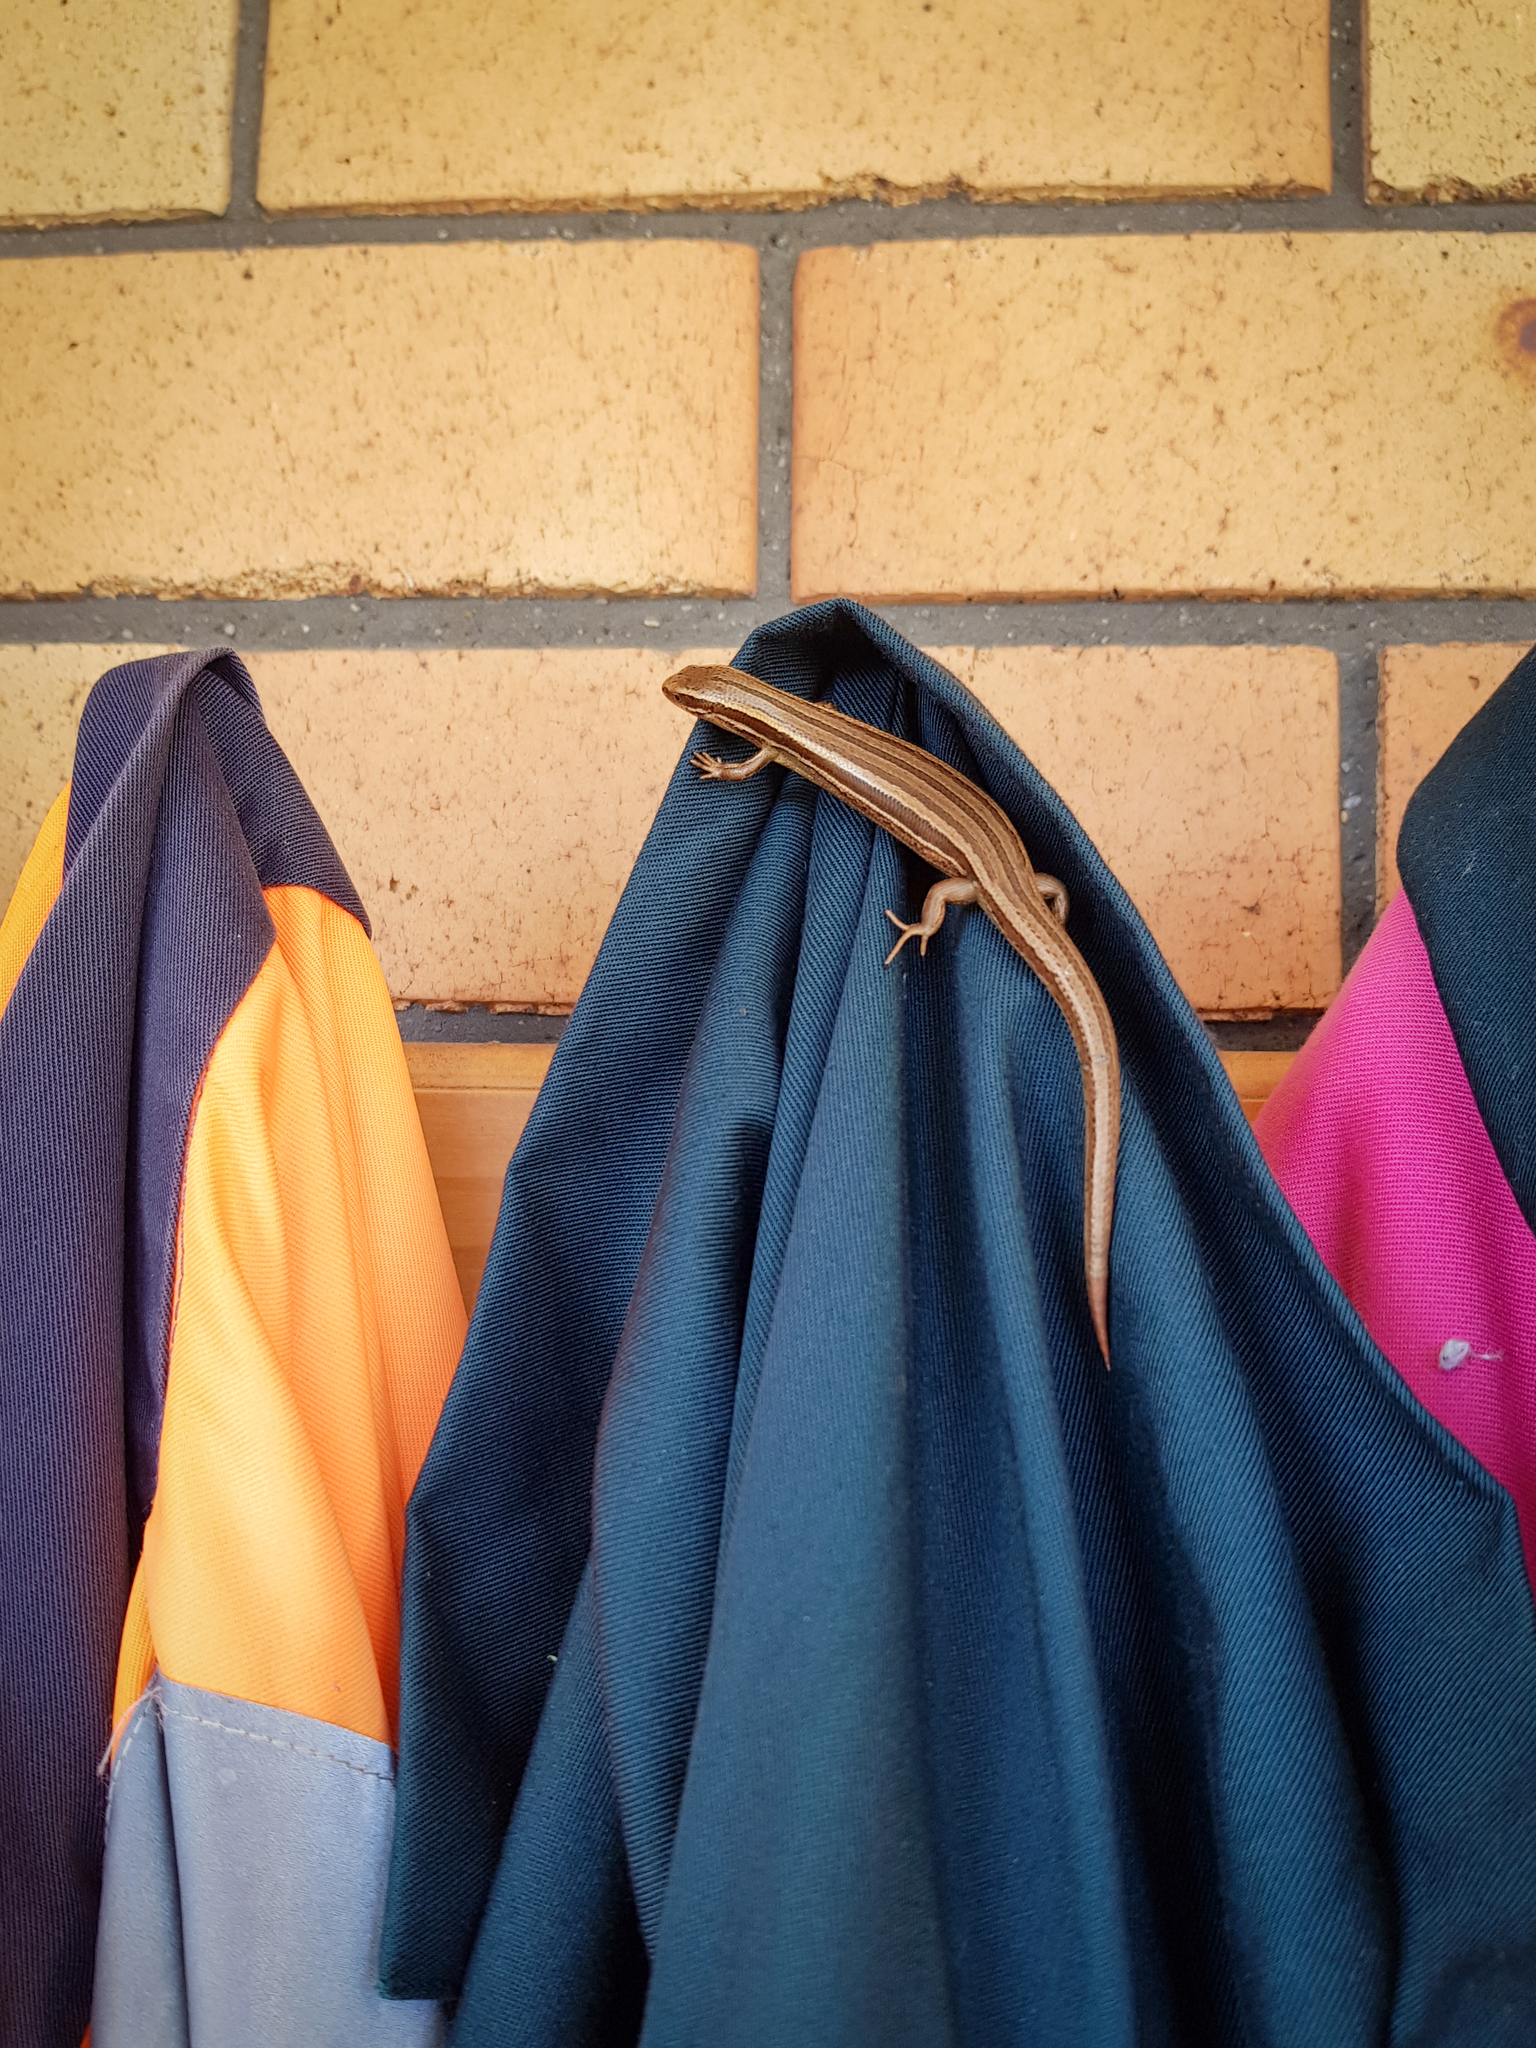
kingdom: Animalia
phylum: Chordata
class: Squamata
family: Scincidae
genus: Oligosoma
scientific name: Oligosoma polychroma
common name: Common new zealand skink
